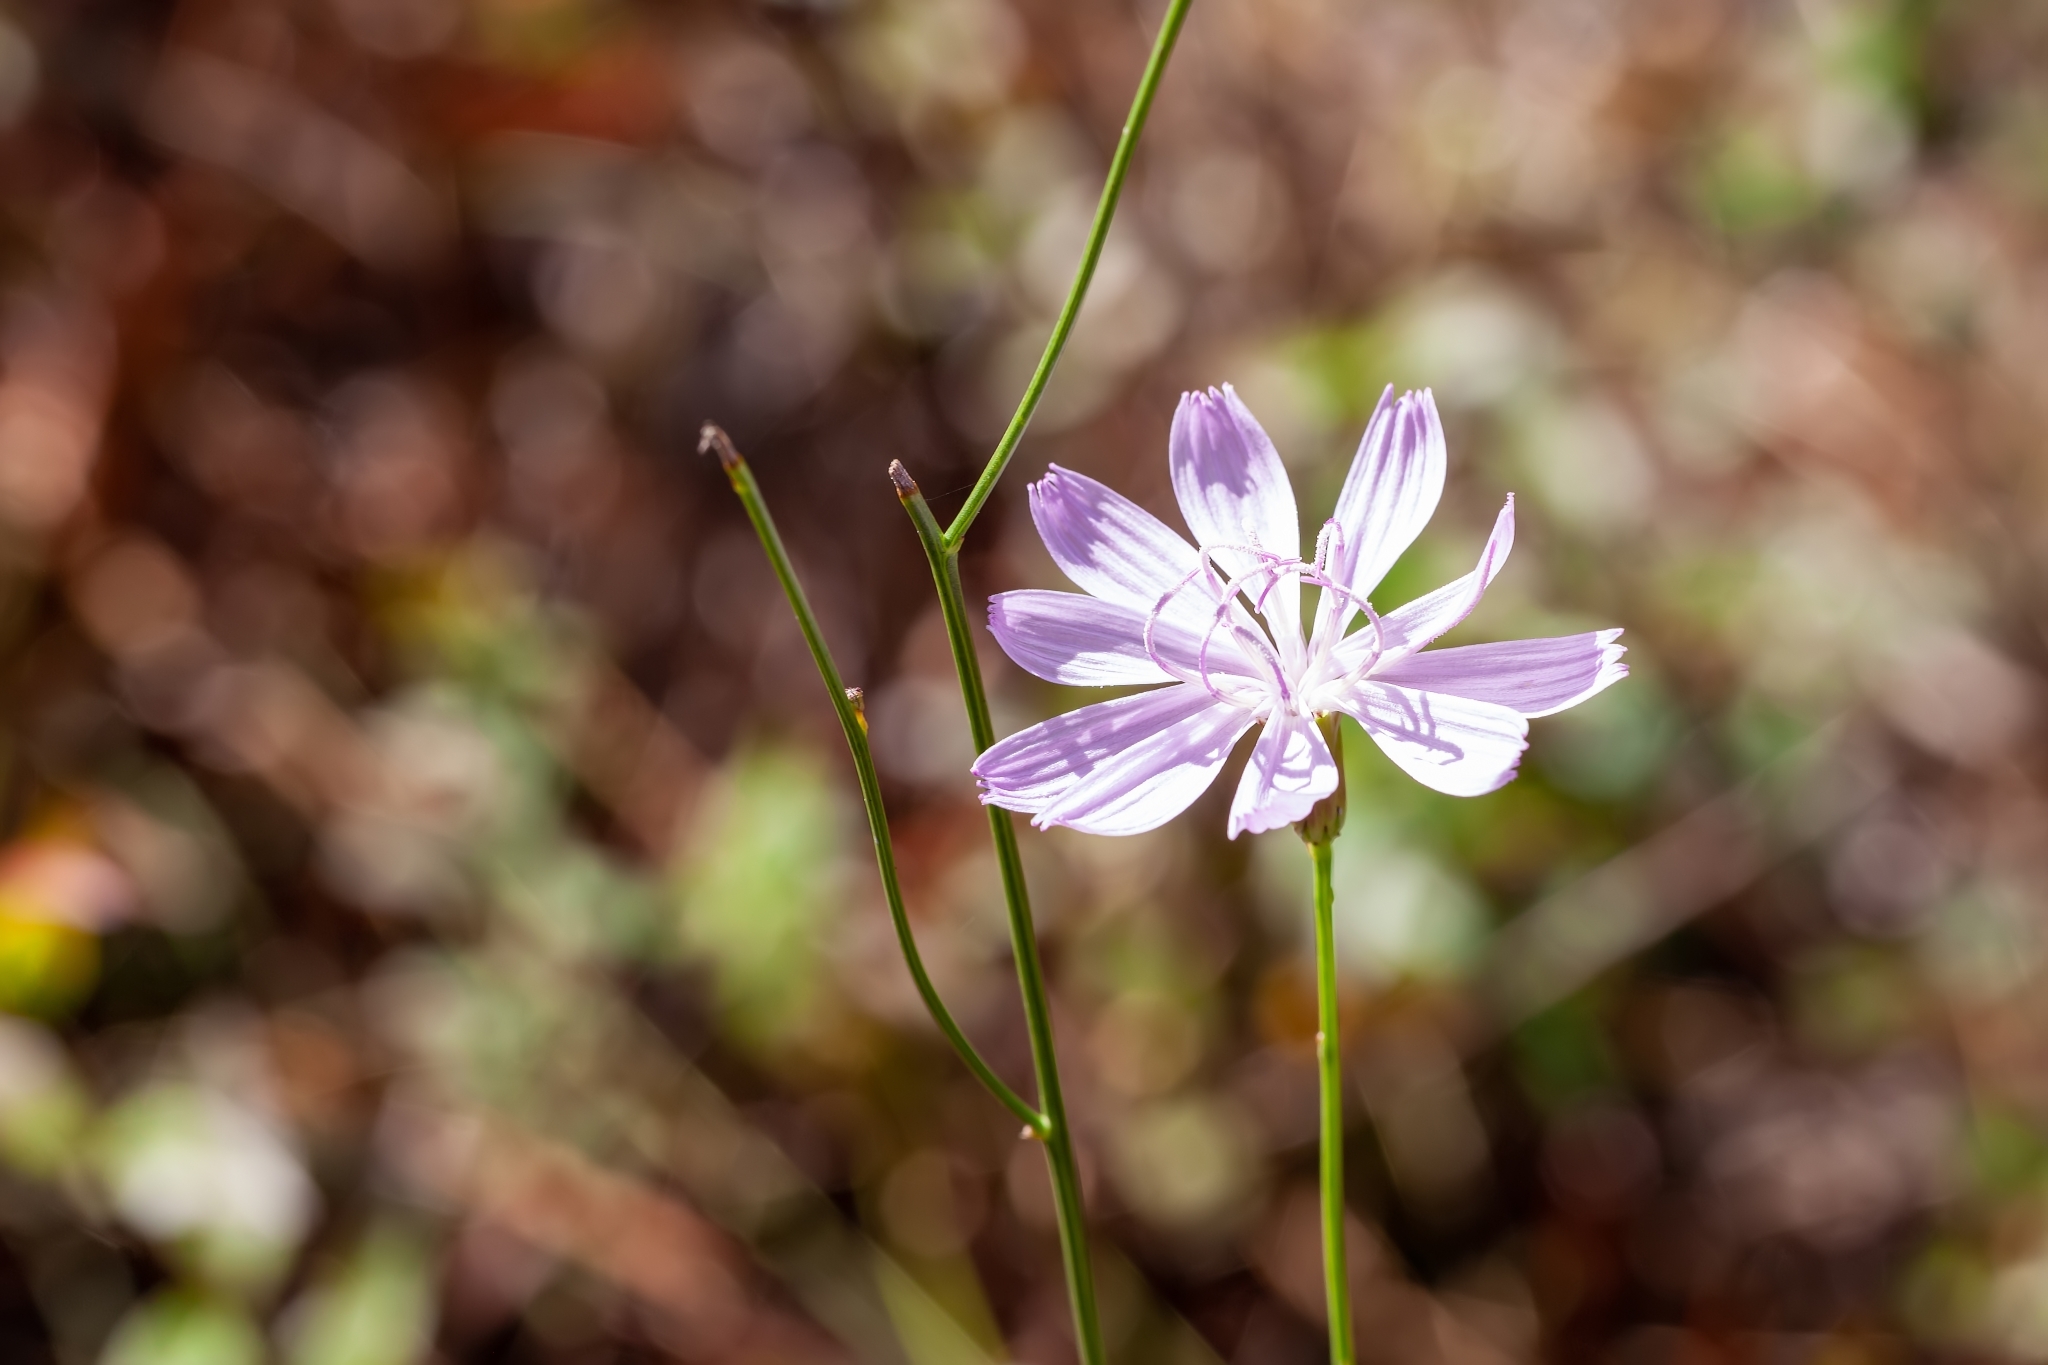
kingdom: Plantae
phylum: Tracheophyta
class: Magnoliopsida
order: Asterales
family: Asteraceae
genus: Lygodesmia
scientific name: Lygodesmia aphylla
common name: Rose-rush
